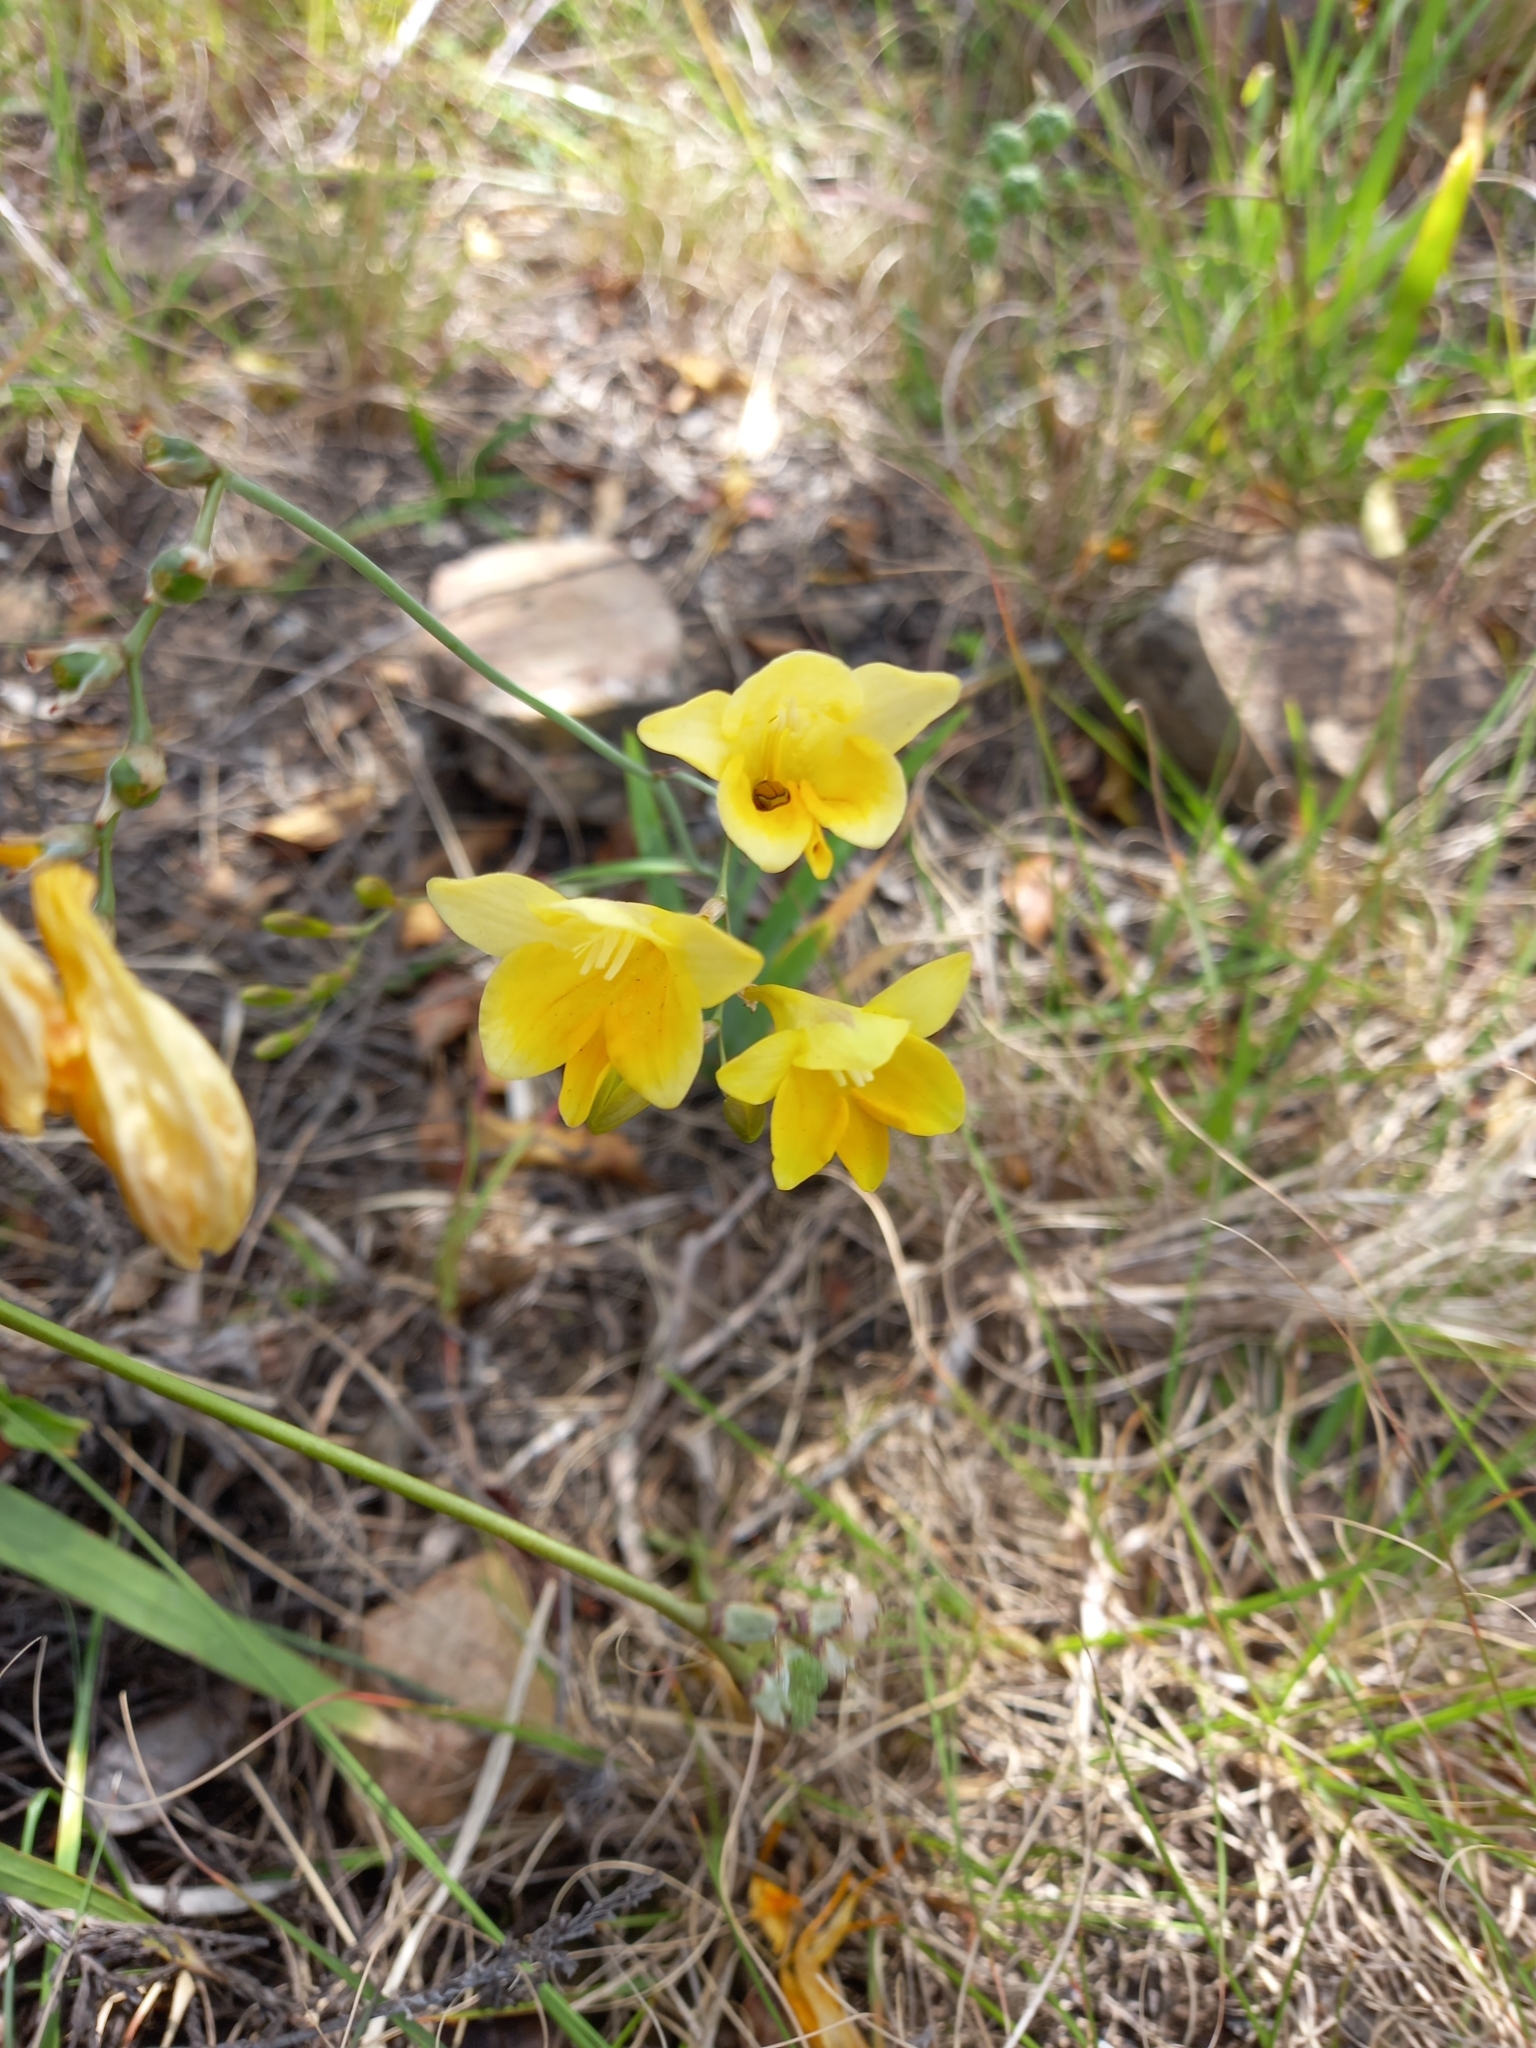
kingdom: Plantae
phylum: Tracheophyta
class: Liliopsida
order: Asparagales
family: Iridaceae
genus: Freesia
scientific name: Freesia corymbosa
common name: Common freesia
